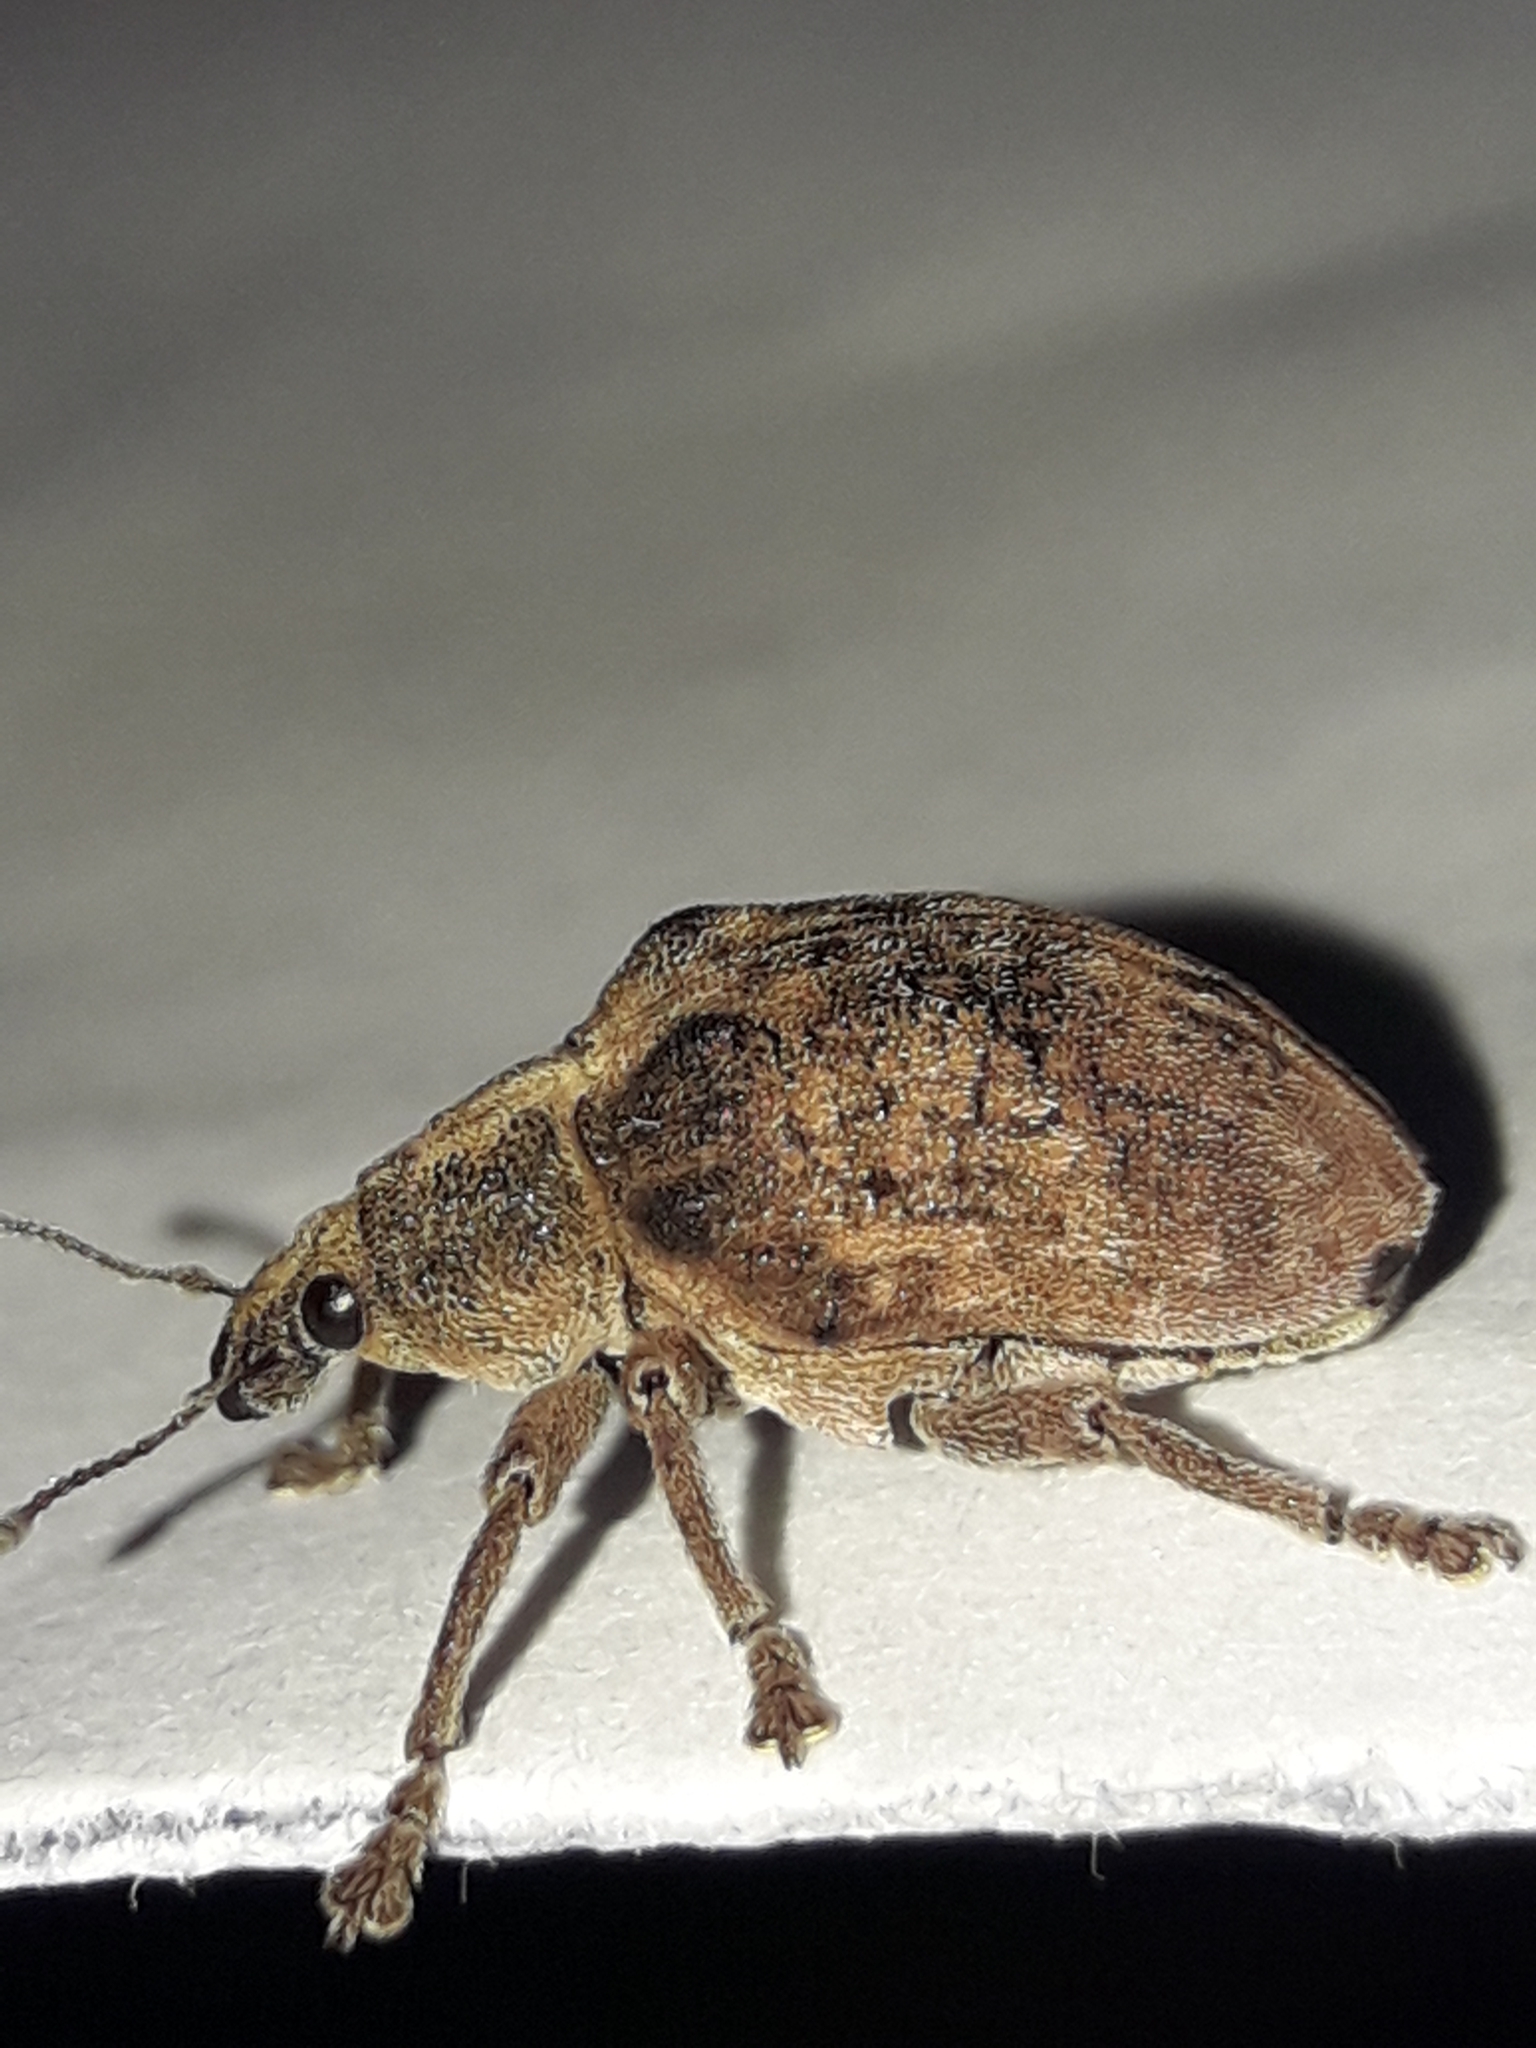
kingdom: Animalia
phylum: Arthropoda
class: Insecta
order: Coleoptera
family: Curculionidae
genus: Gonipterus
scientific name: Gonipterus platensis
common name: Eucalyptus snout beetle
